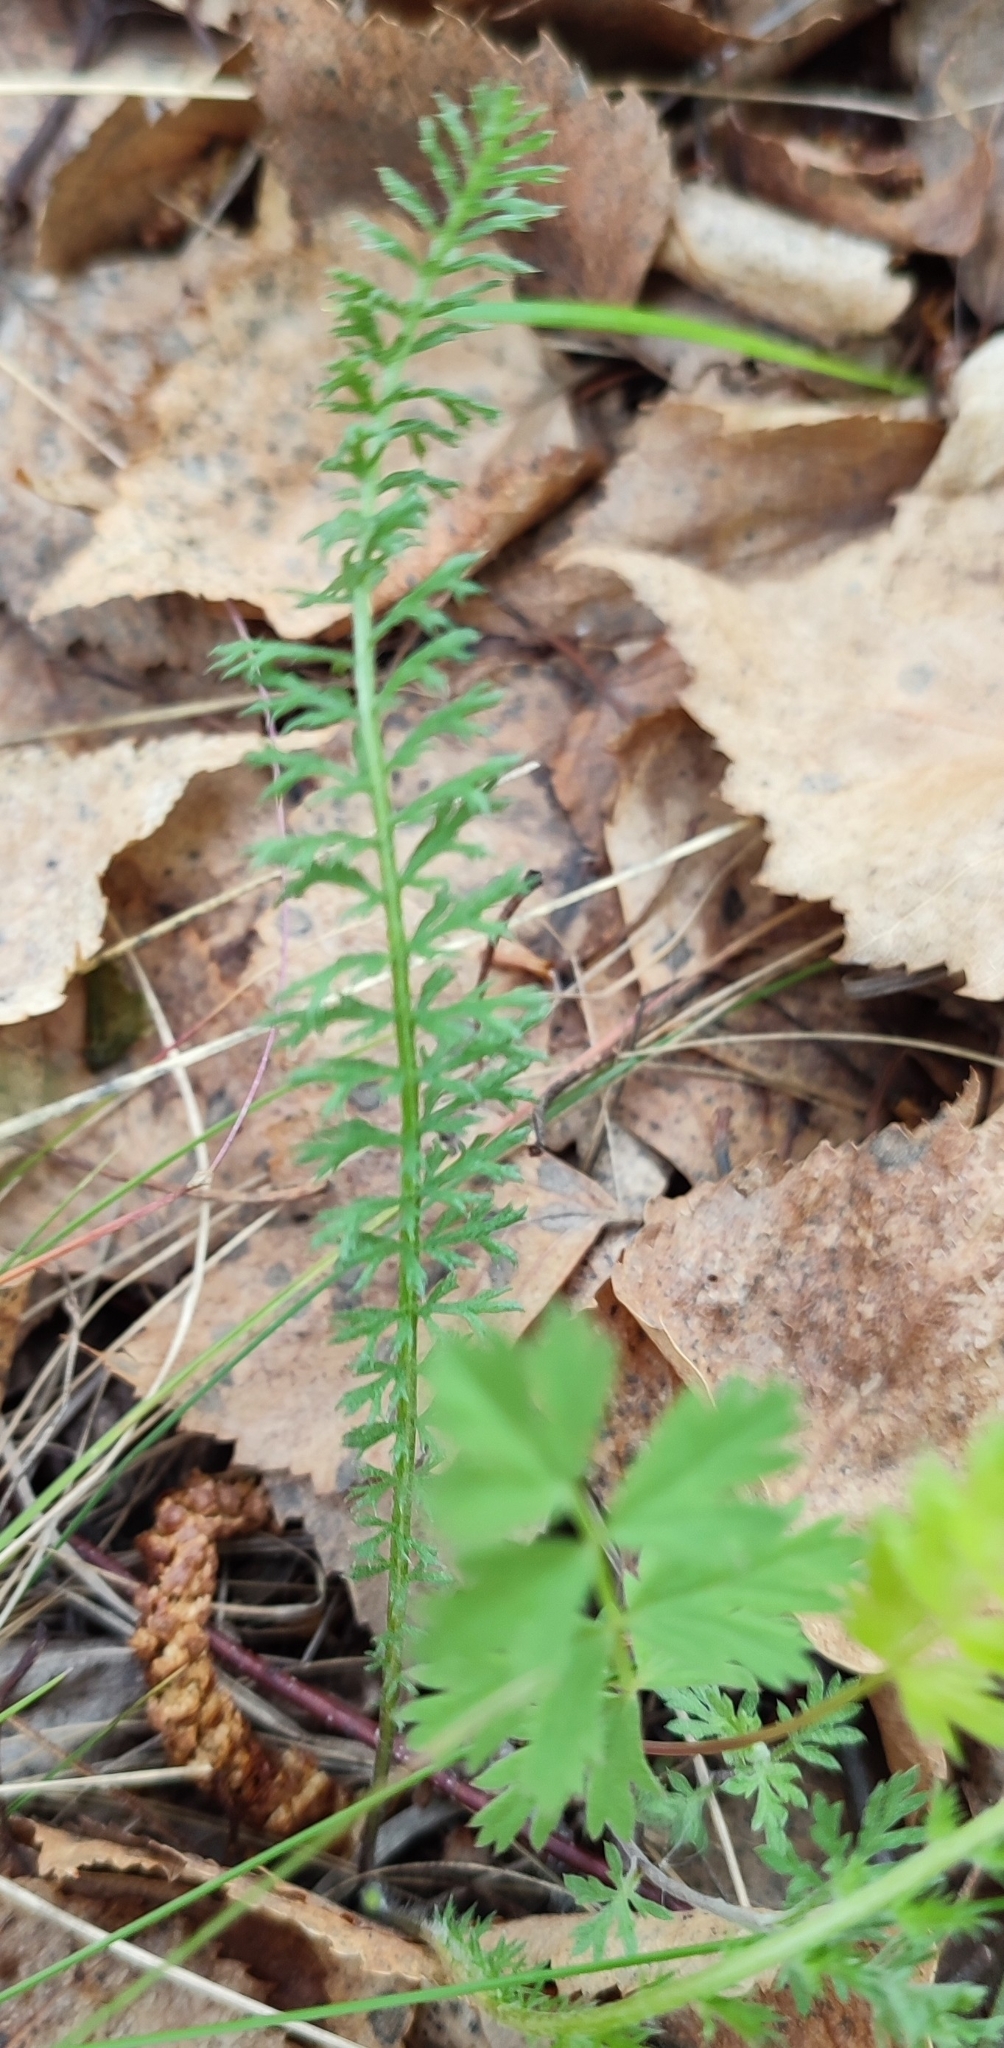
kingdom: Plantae
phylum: Tracheophyta
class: Magnoliopsida
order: Asterales
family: Asteraceae
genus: Achillea
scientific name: Achillea millefolium
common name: Yarrow
